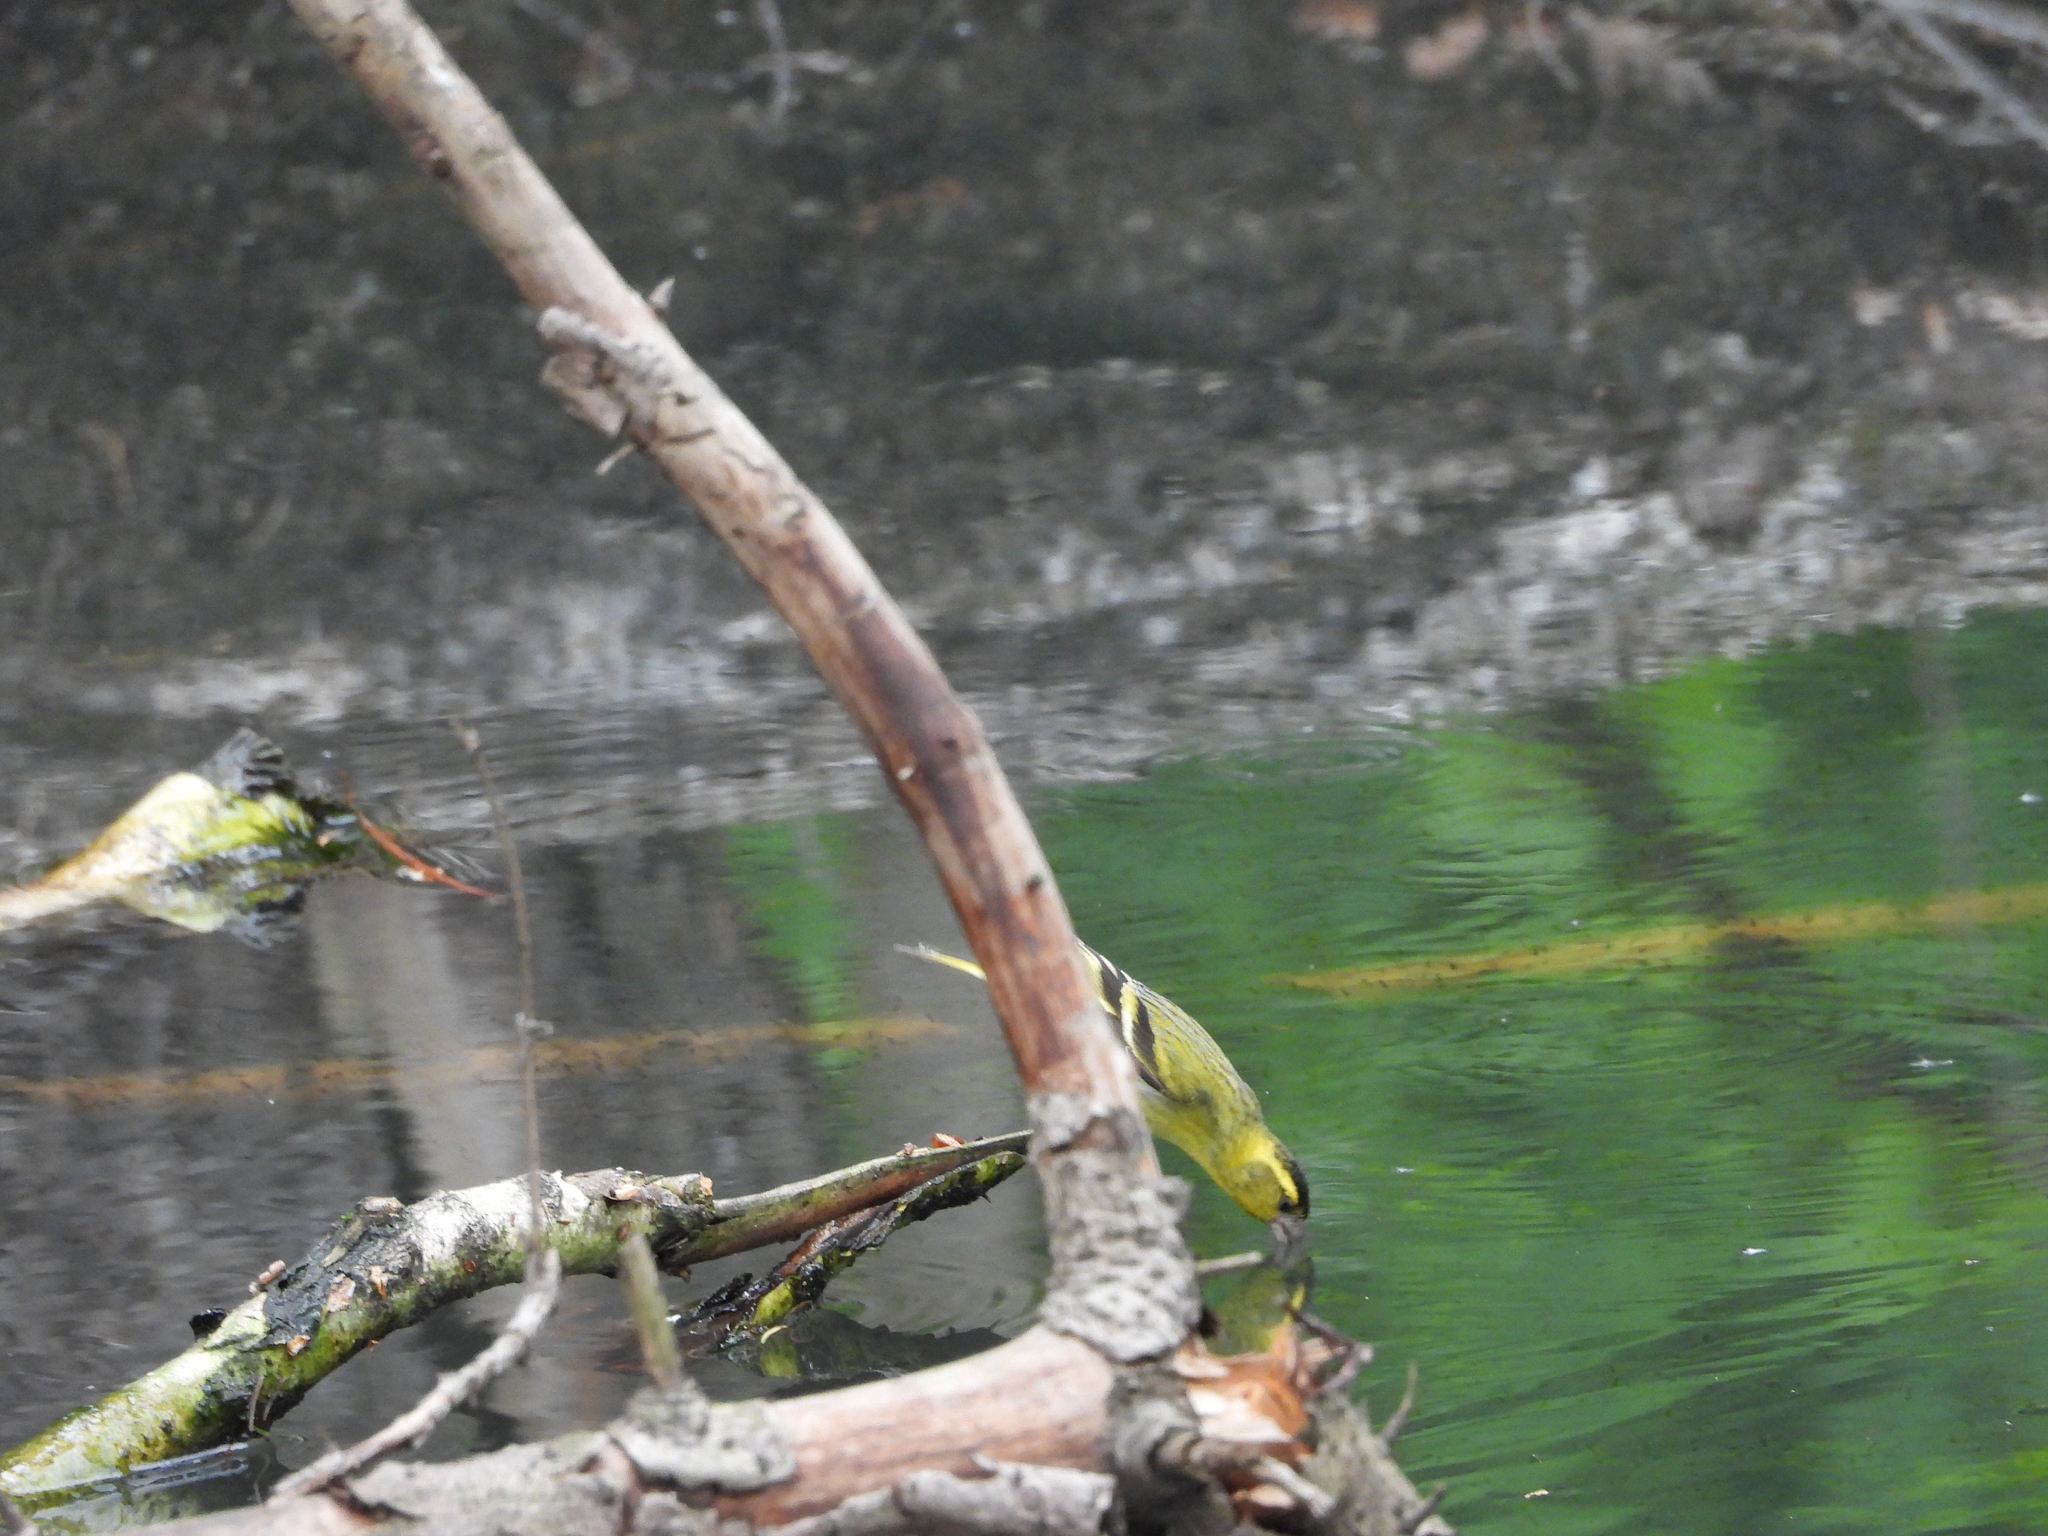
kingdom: Animalia
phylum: Chordata
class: Aves
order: Passeriformes
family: Fringillidae
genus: Spinus
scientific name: Spinus spinus
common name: Eurasian siskin
